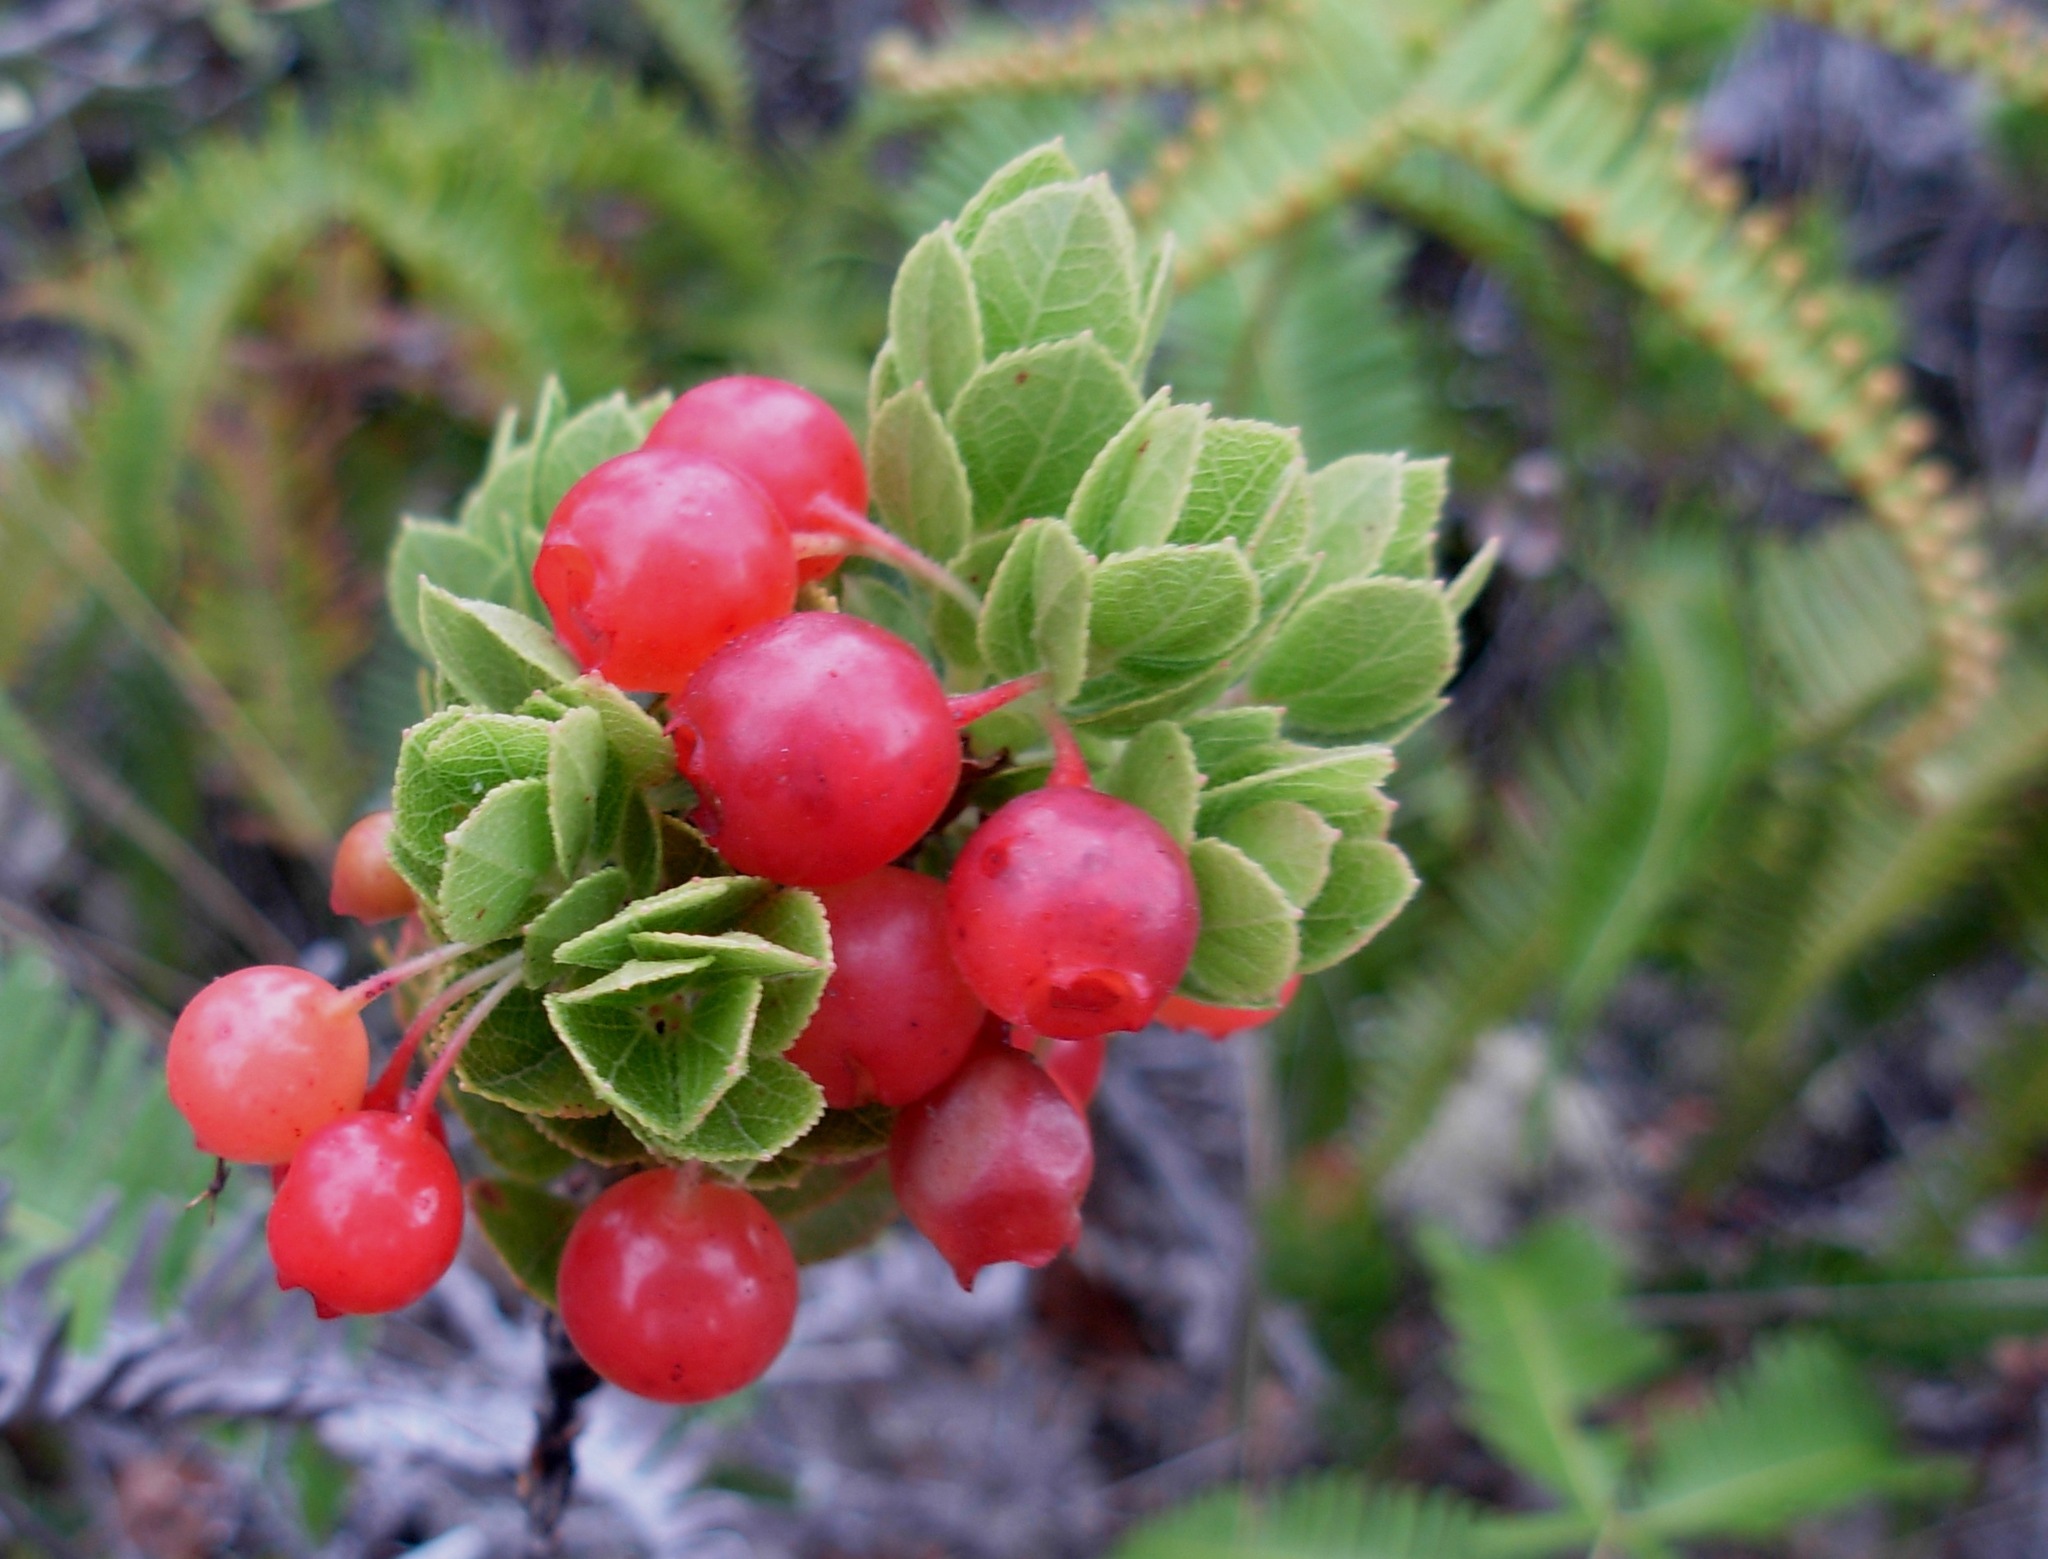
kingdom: Plantae
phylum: Tracheophyta
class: Magnoliopsida
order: Ericales
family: Ericaceae
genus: Vaccinium
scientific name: Vaccinium reticulatum
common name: Ohelo
